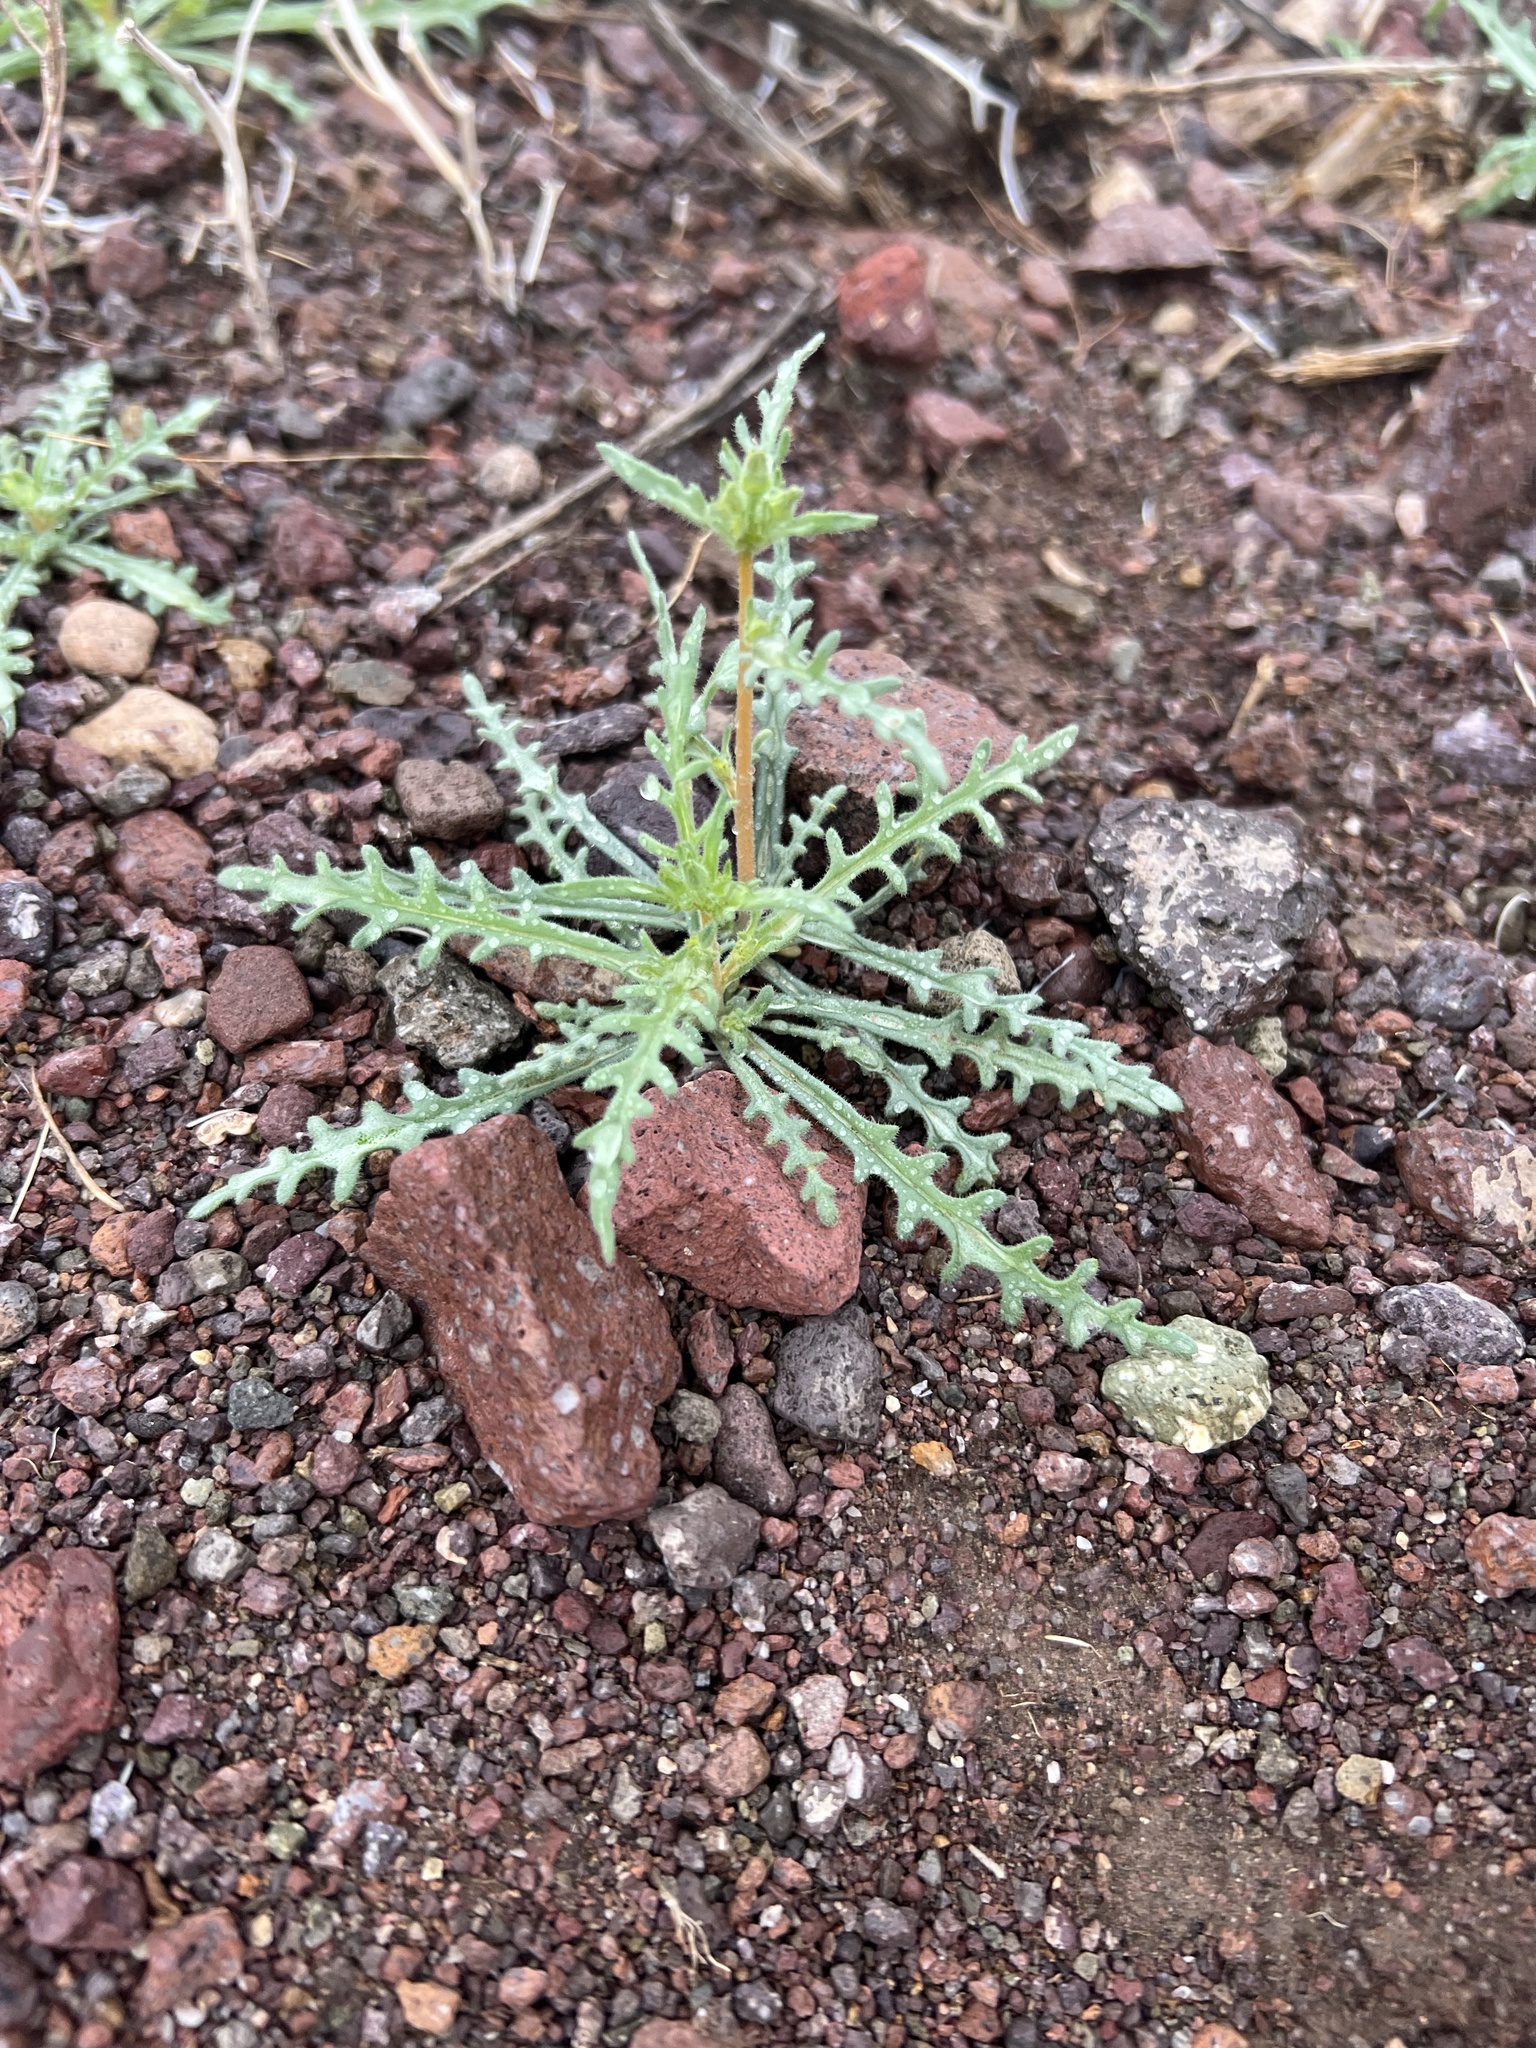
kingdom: Plantae
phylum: Tracheophyta
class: Magnoliopsida
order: Cornales
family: Loasaceae
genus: Mentzelia
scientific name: Mentzelia albicaulis
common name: White-stem blazingstar
